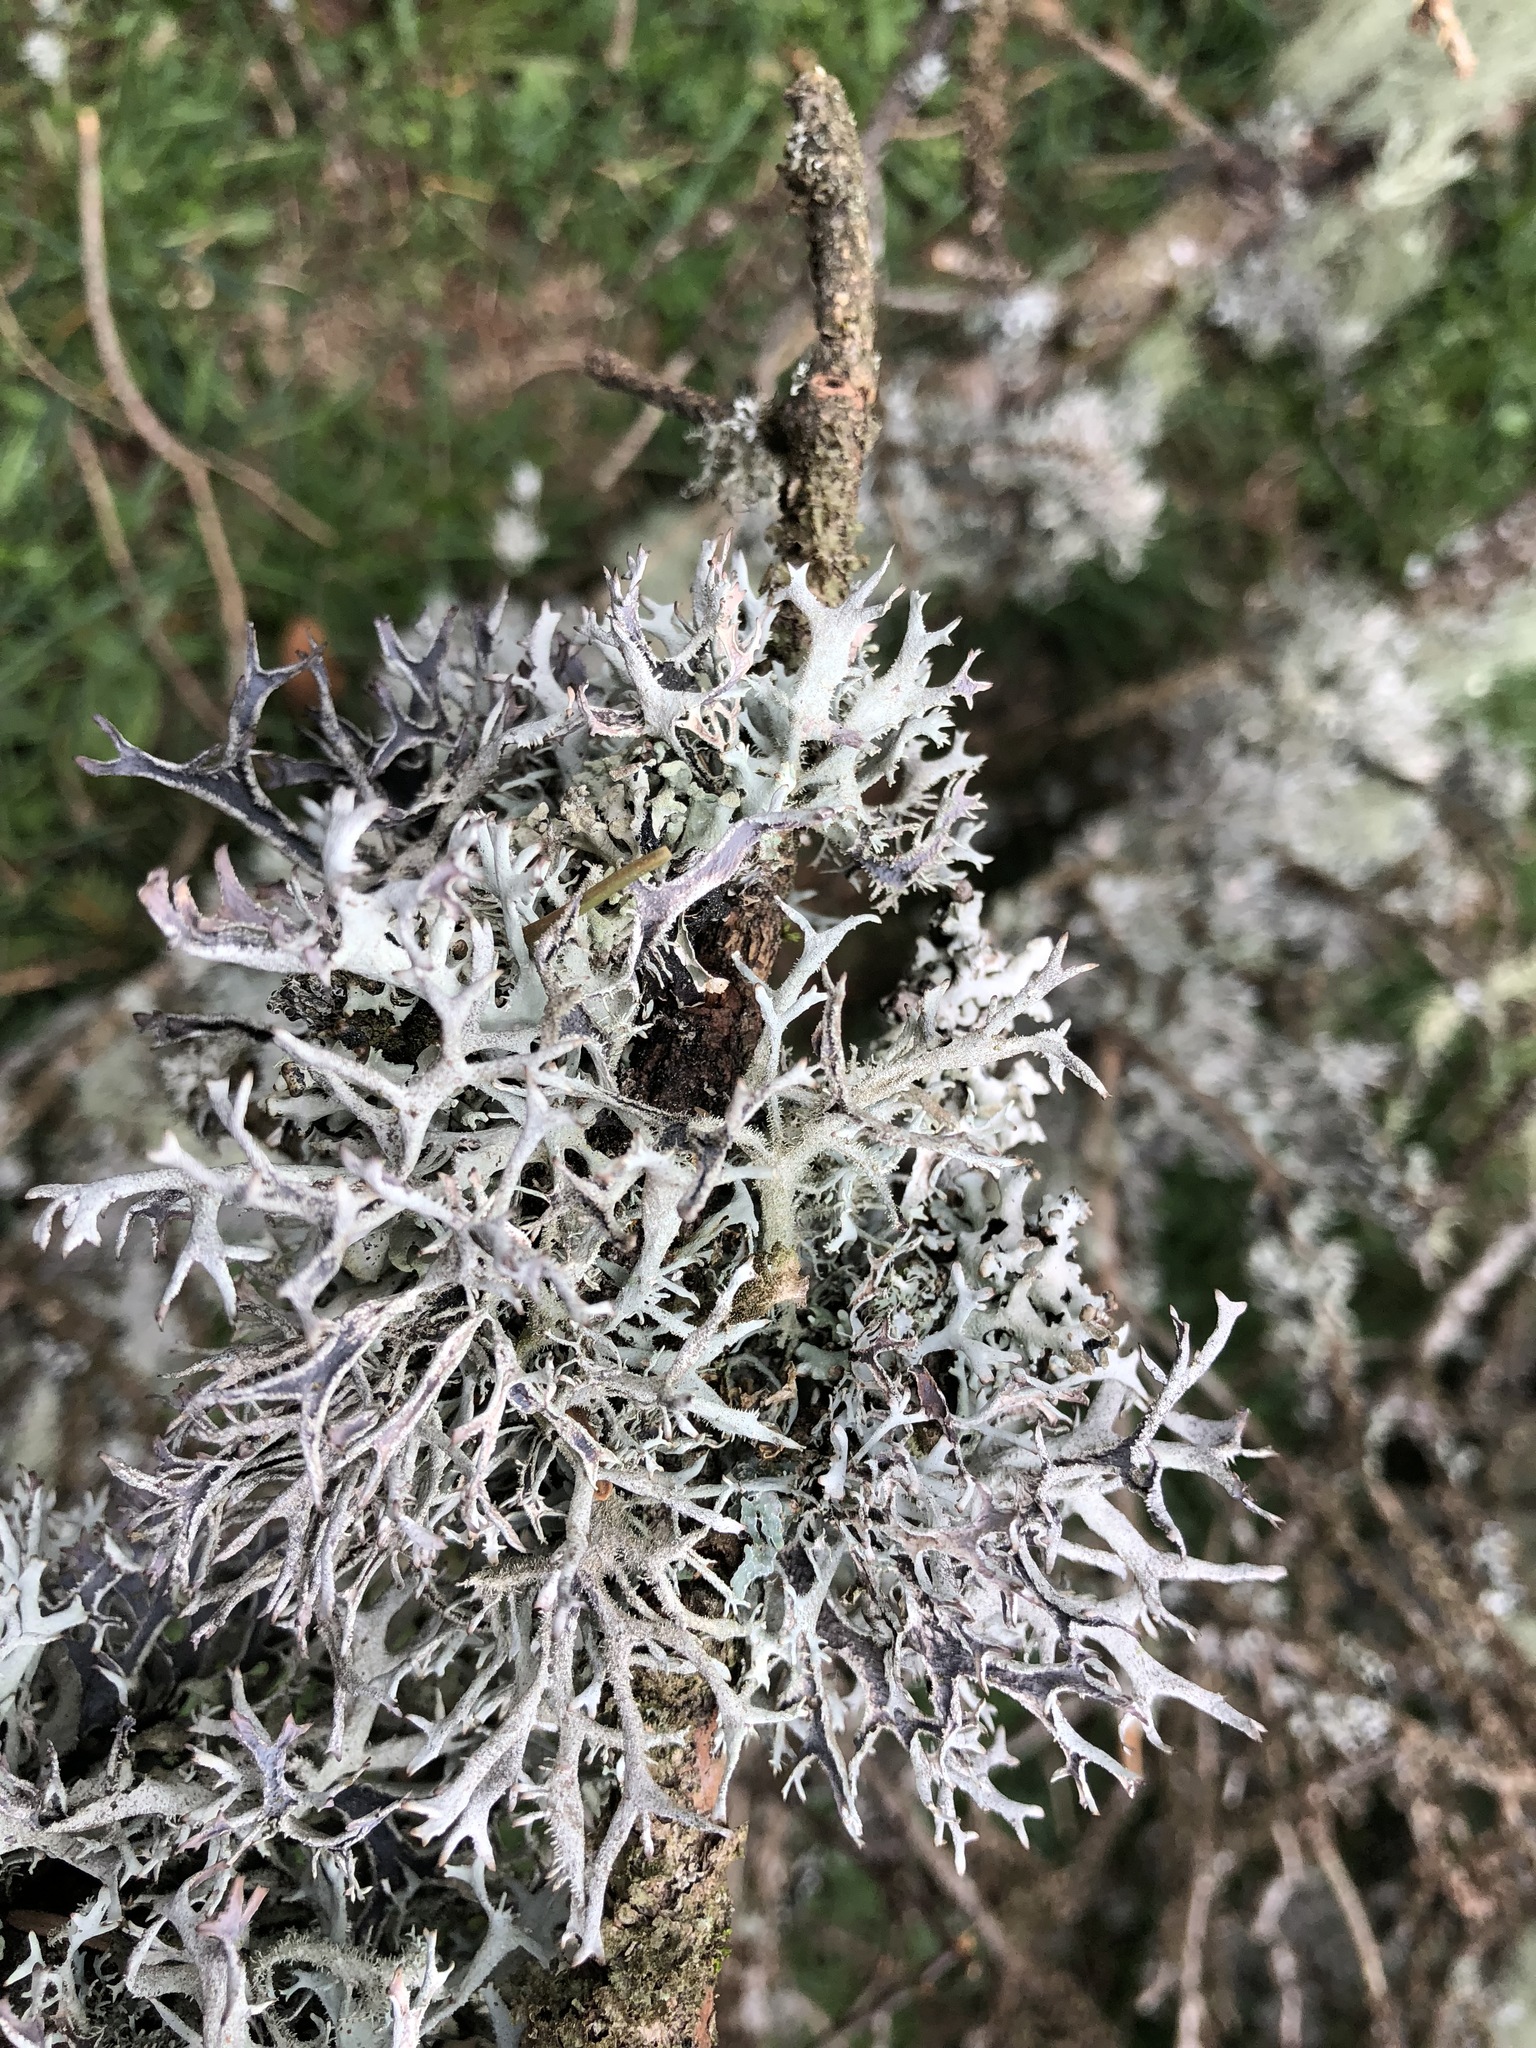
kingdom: Fungi
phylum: Ascomycota
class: Lecanoromycetes
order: Lecanorales
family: Parmeliaceae
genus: Pseudevernia
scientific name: Pseudevernia furfuracea
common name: Tree moss
